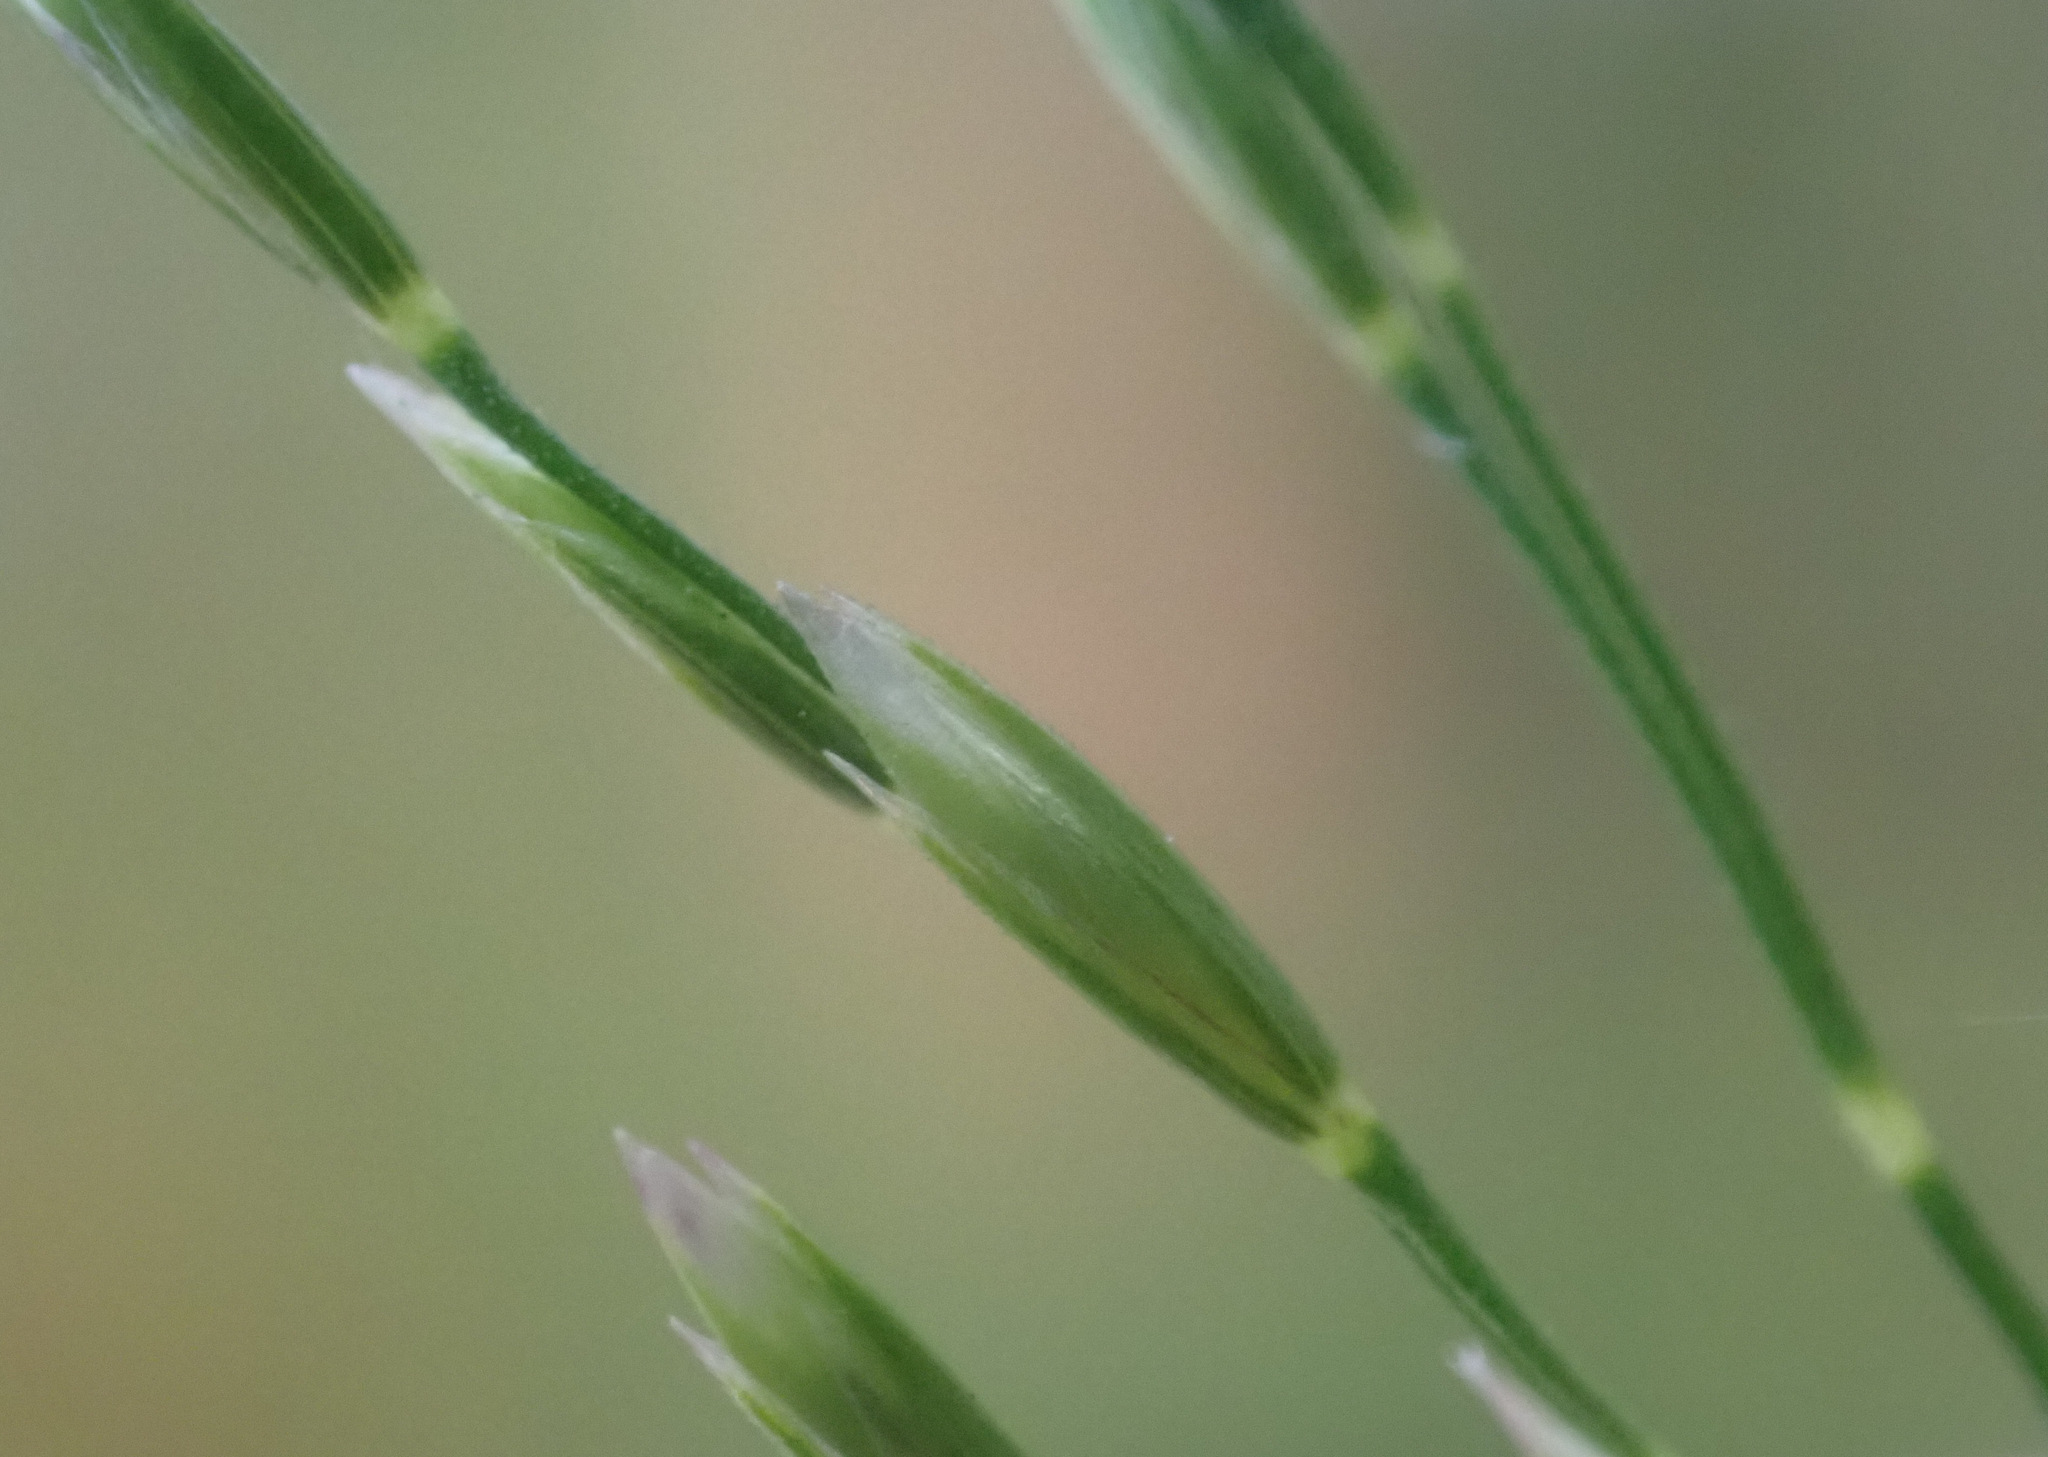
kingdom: Plantae
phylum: Tracheophyta
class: Liliopsida
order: Poales
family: Poaceae
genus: Poa
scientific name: Poa nemoralis
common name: Wood bluegrass
